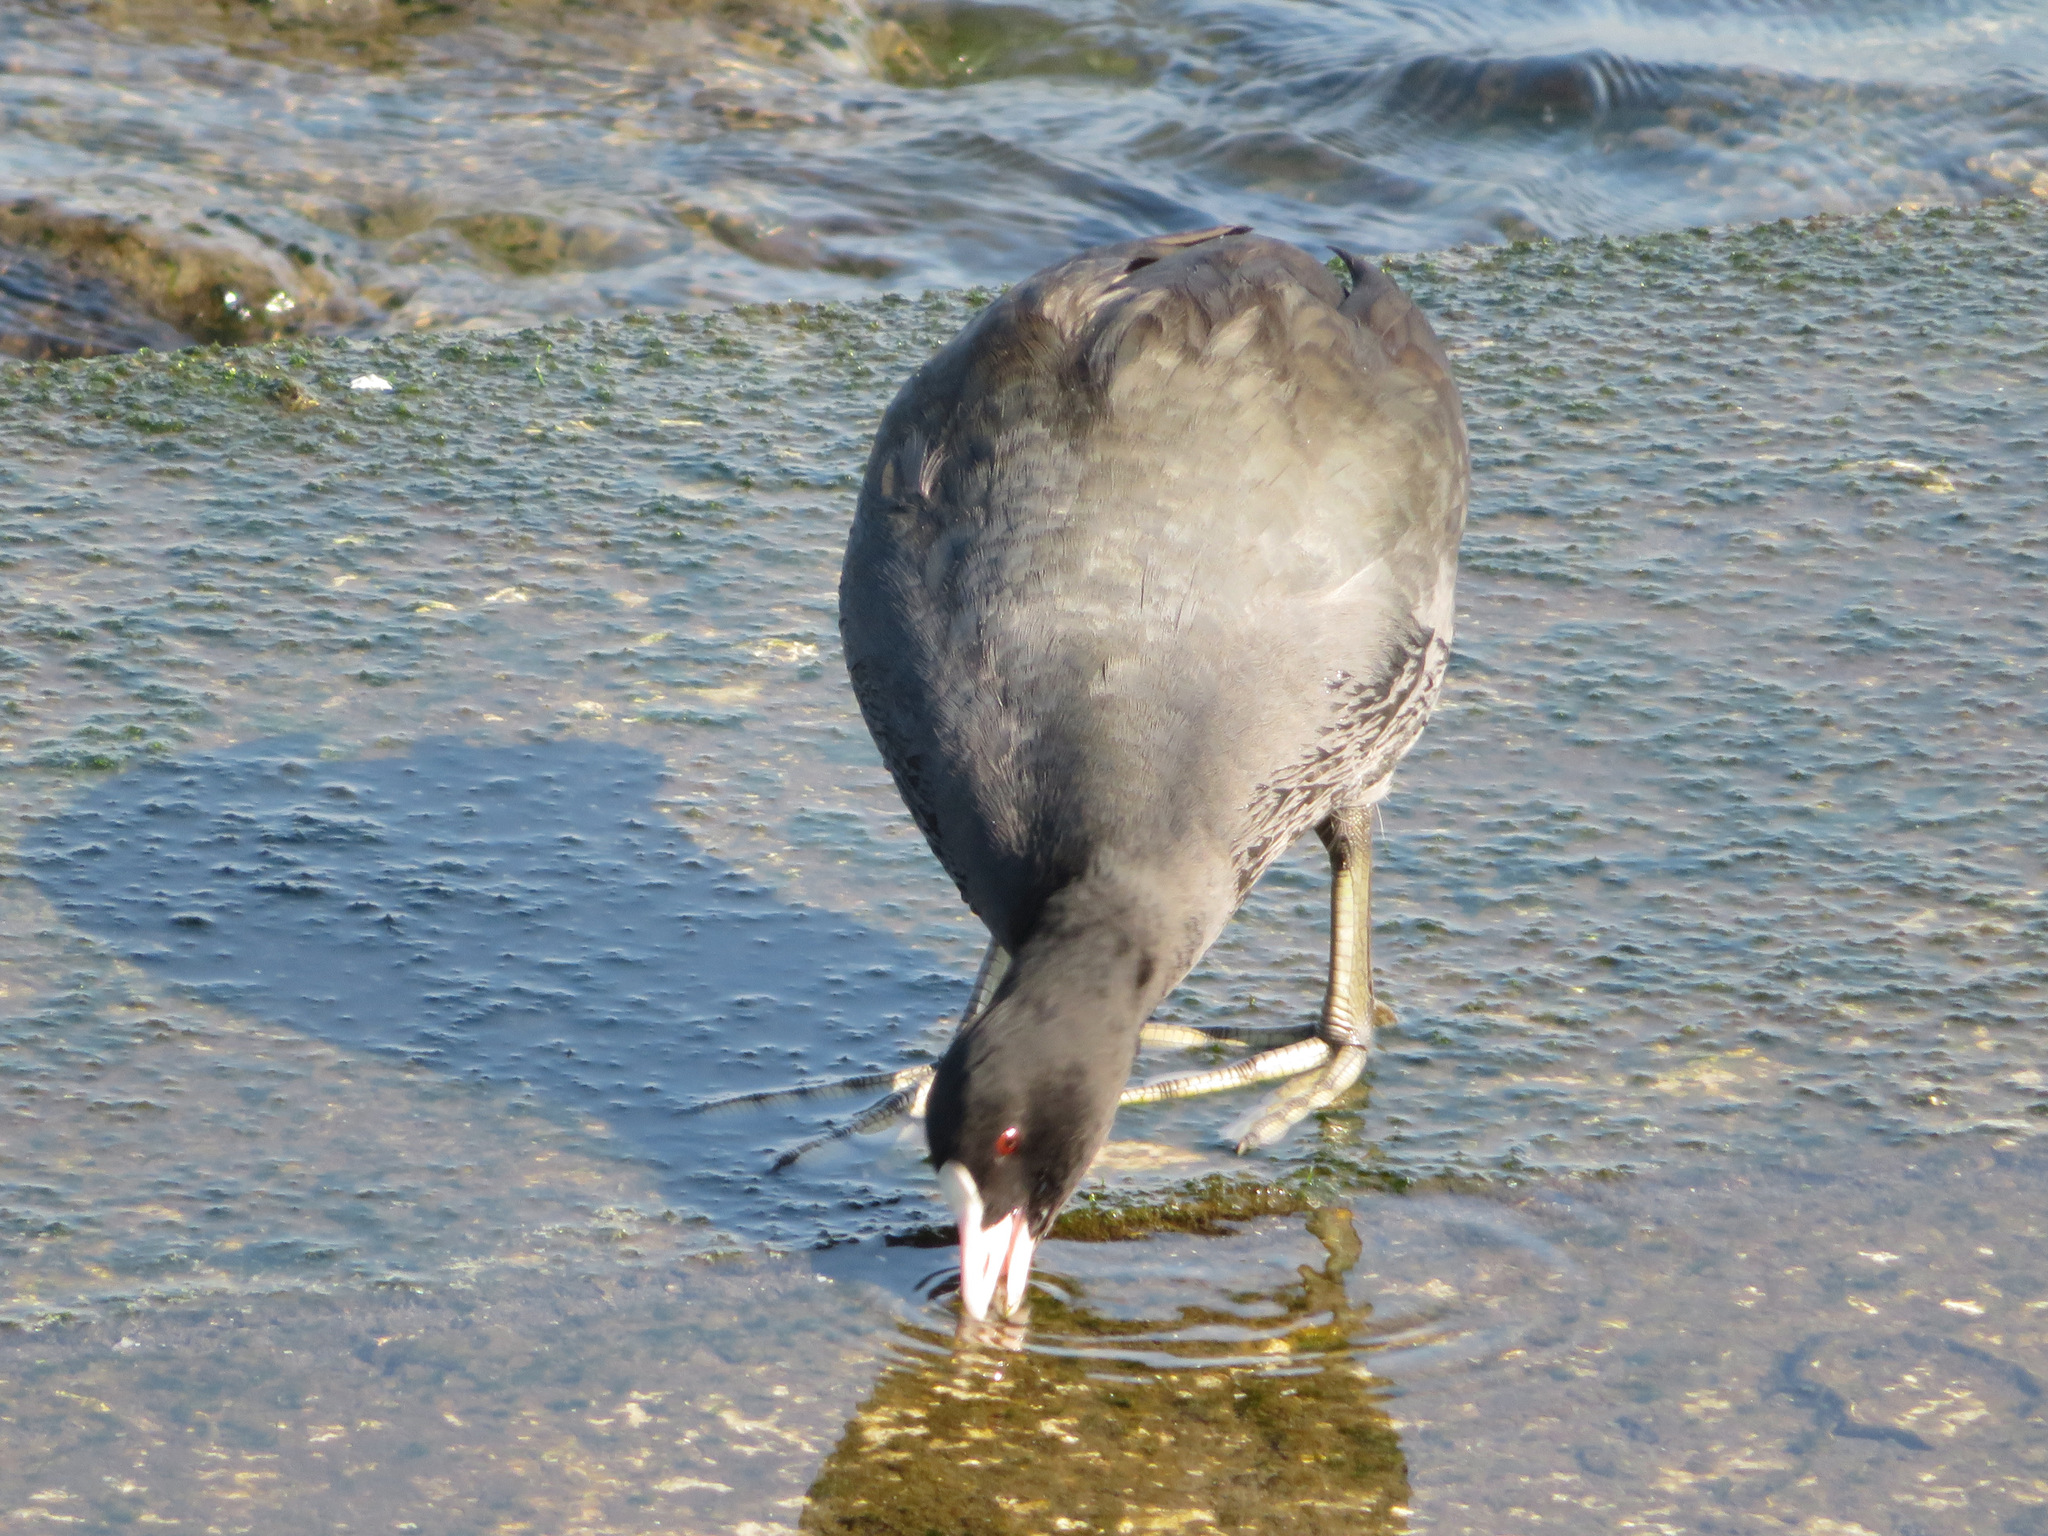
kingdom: Animalia
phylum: Chordata
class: Aves
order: Gruiformes
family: Rallidae
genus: Fulica
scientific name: Fulica atra
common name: Eurasian coot
